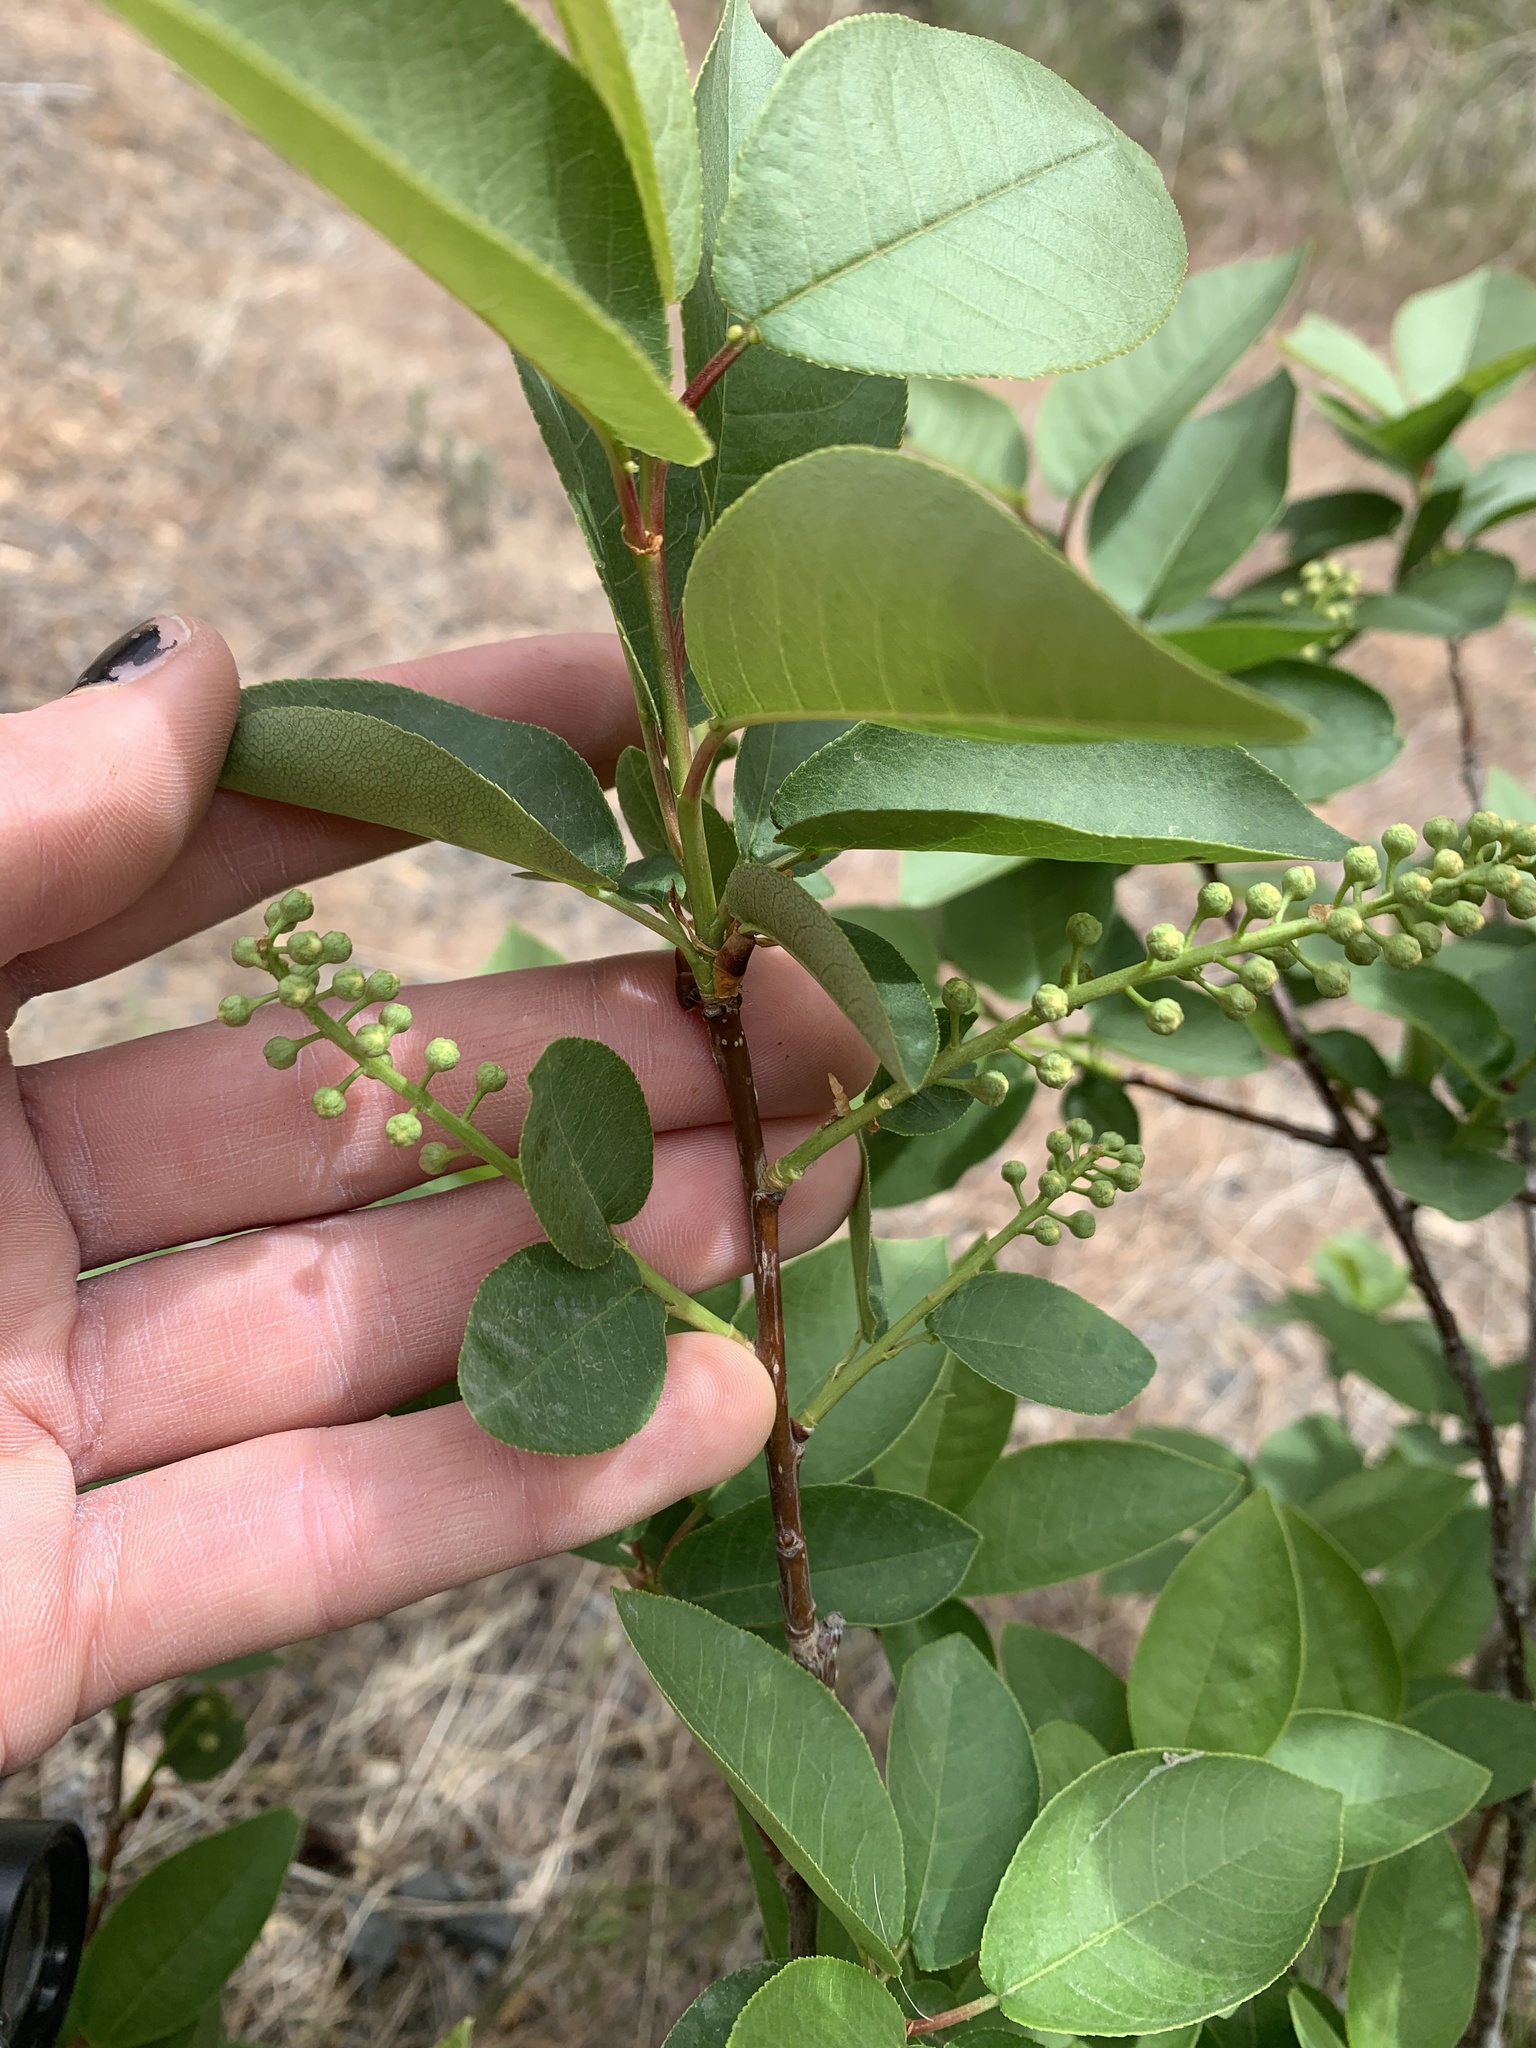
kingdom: Plantae
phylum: Tracheophyta
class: Magnoliopsida
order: Rosales
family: Rosaceae
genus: Prunus
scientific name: Prunus virginiana
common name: Chokecherry
